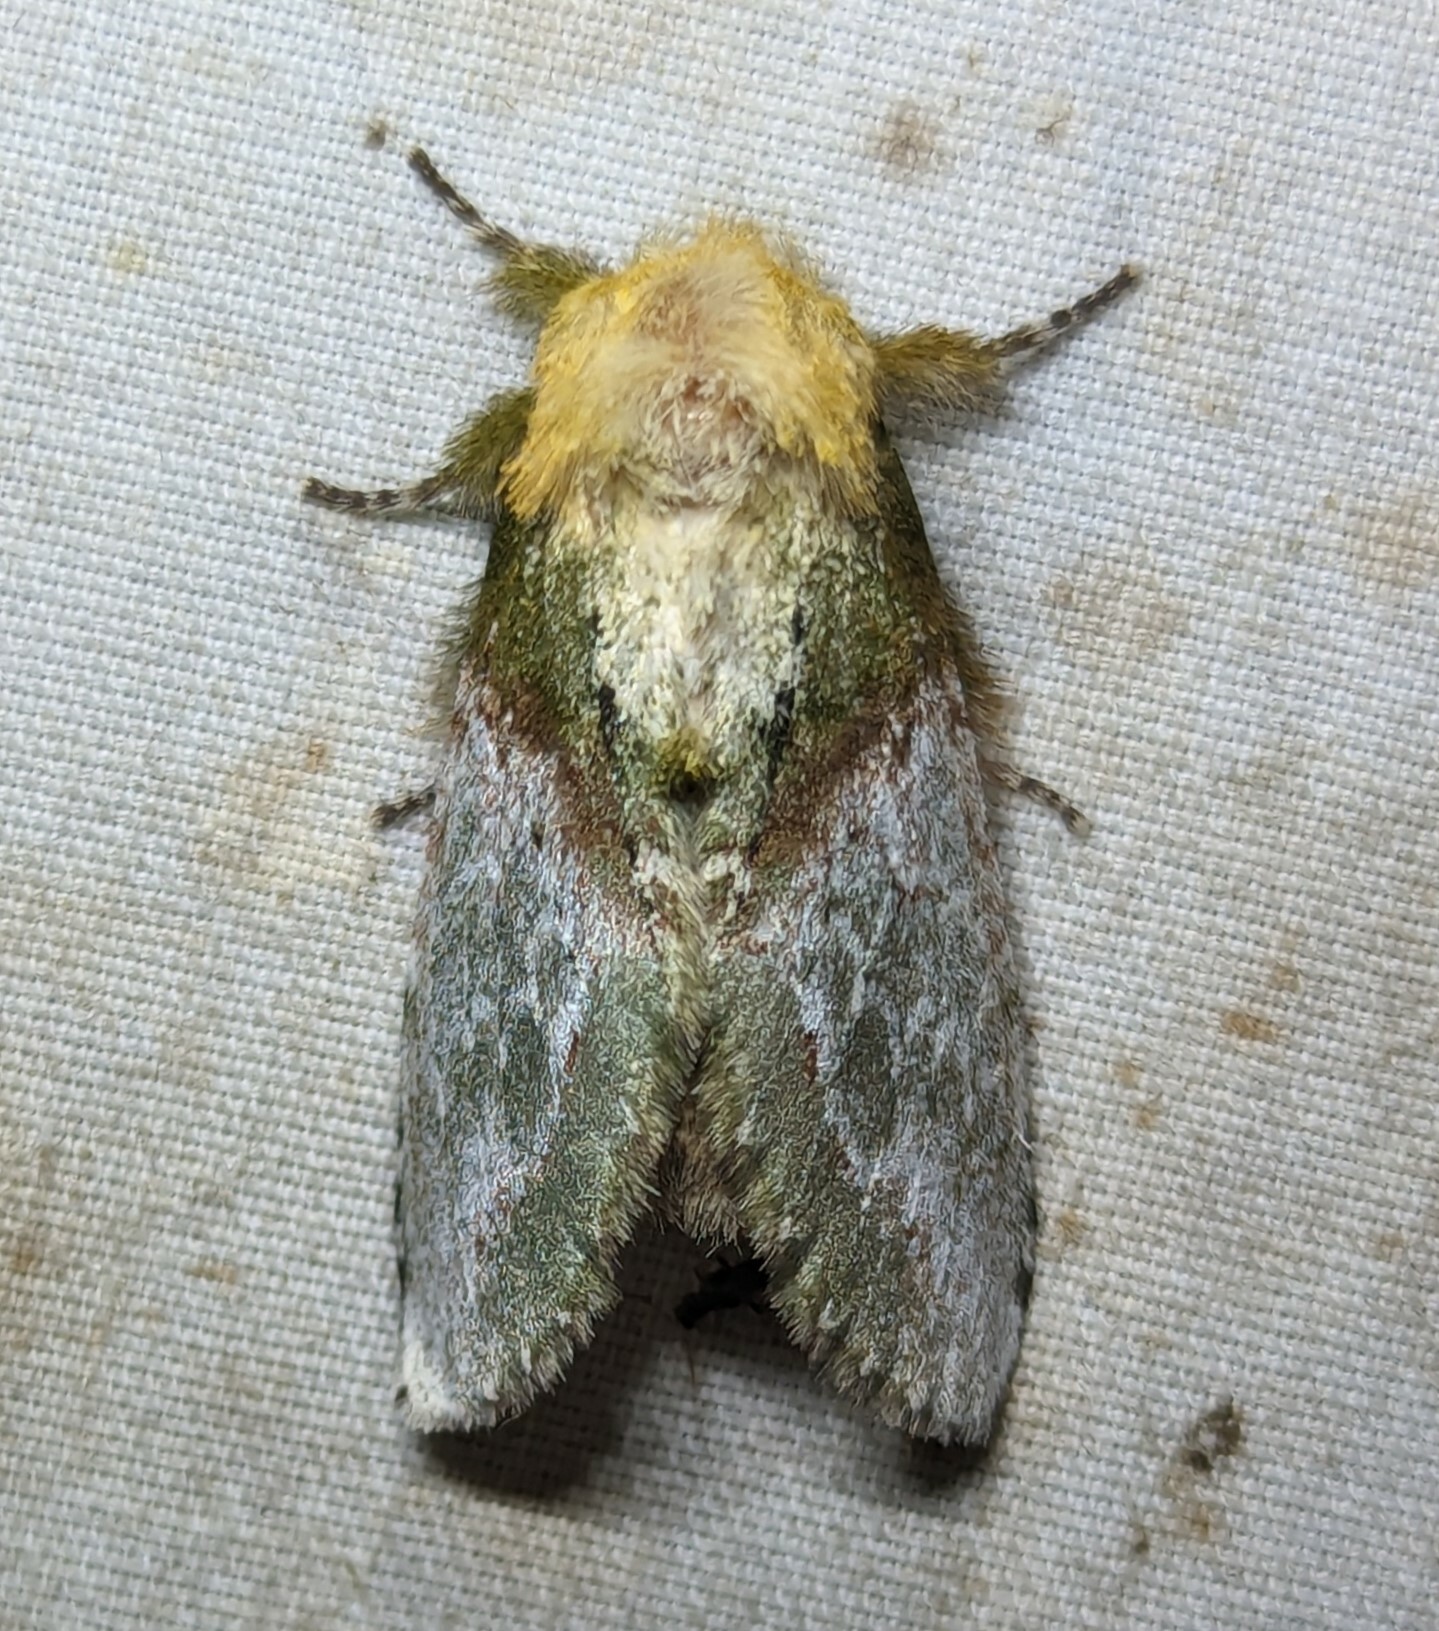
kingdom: Animalia
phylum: Arthropoda
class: Insecta
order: Lepidoptera
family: Notodontidae
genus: Disphragis
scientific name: Disphragis manethusa
